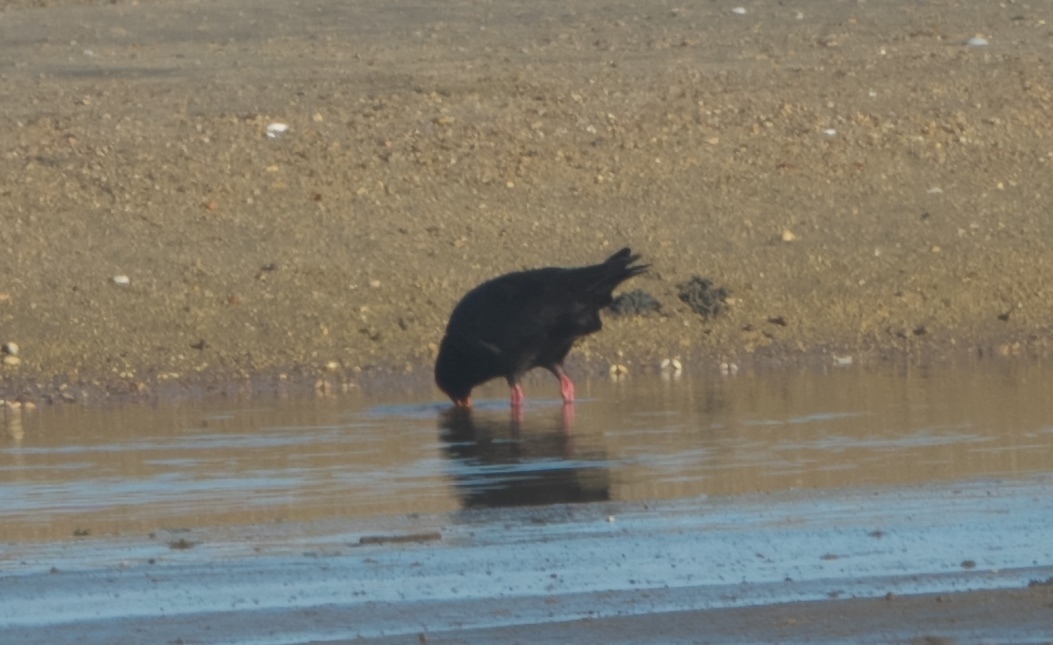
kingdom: Animalia
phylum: Chordata
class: Aves
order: Charadriiformes
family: Haematopodidae
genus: Haematopus
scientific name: Haematopus unicolor
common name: Variable oystercatcher
